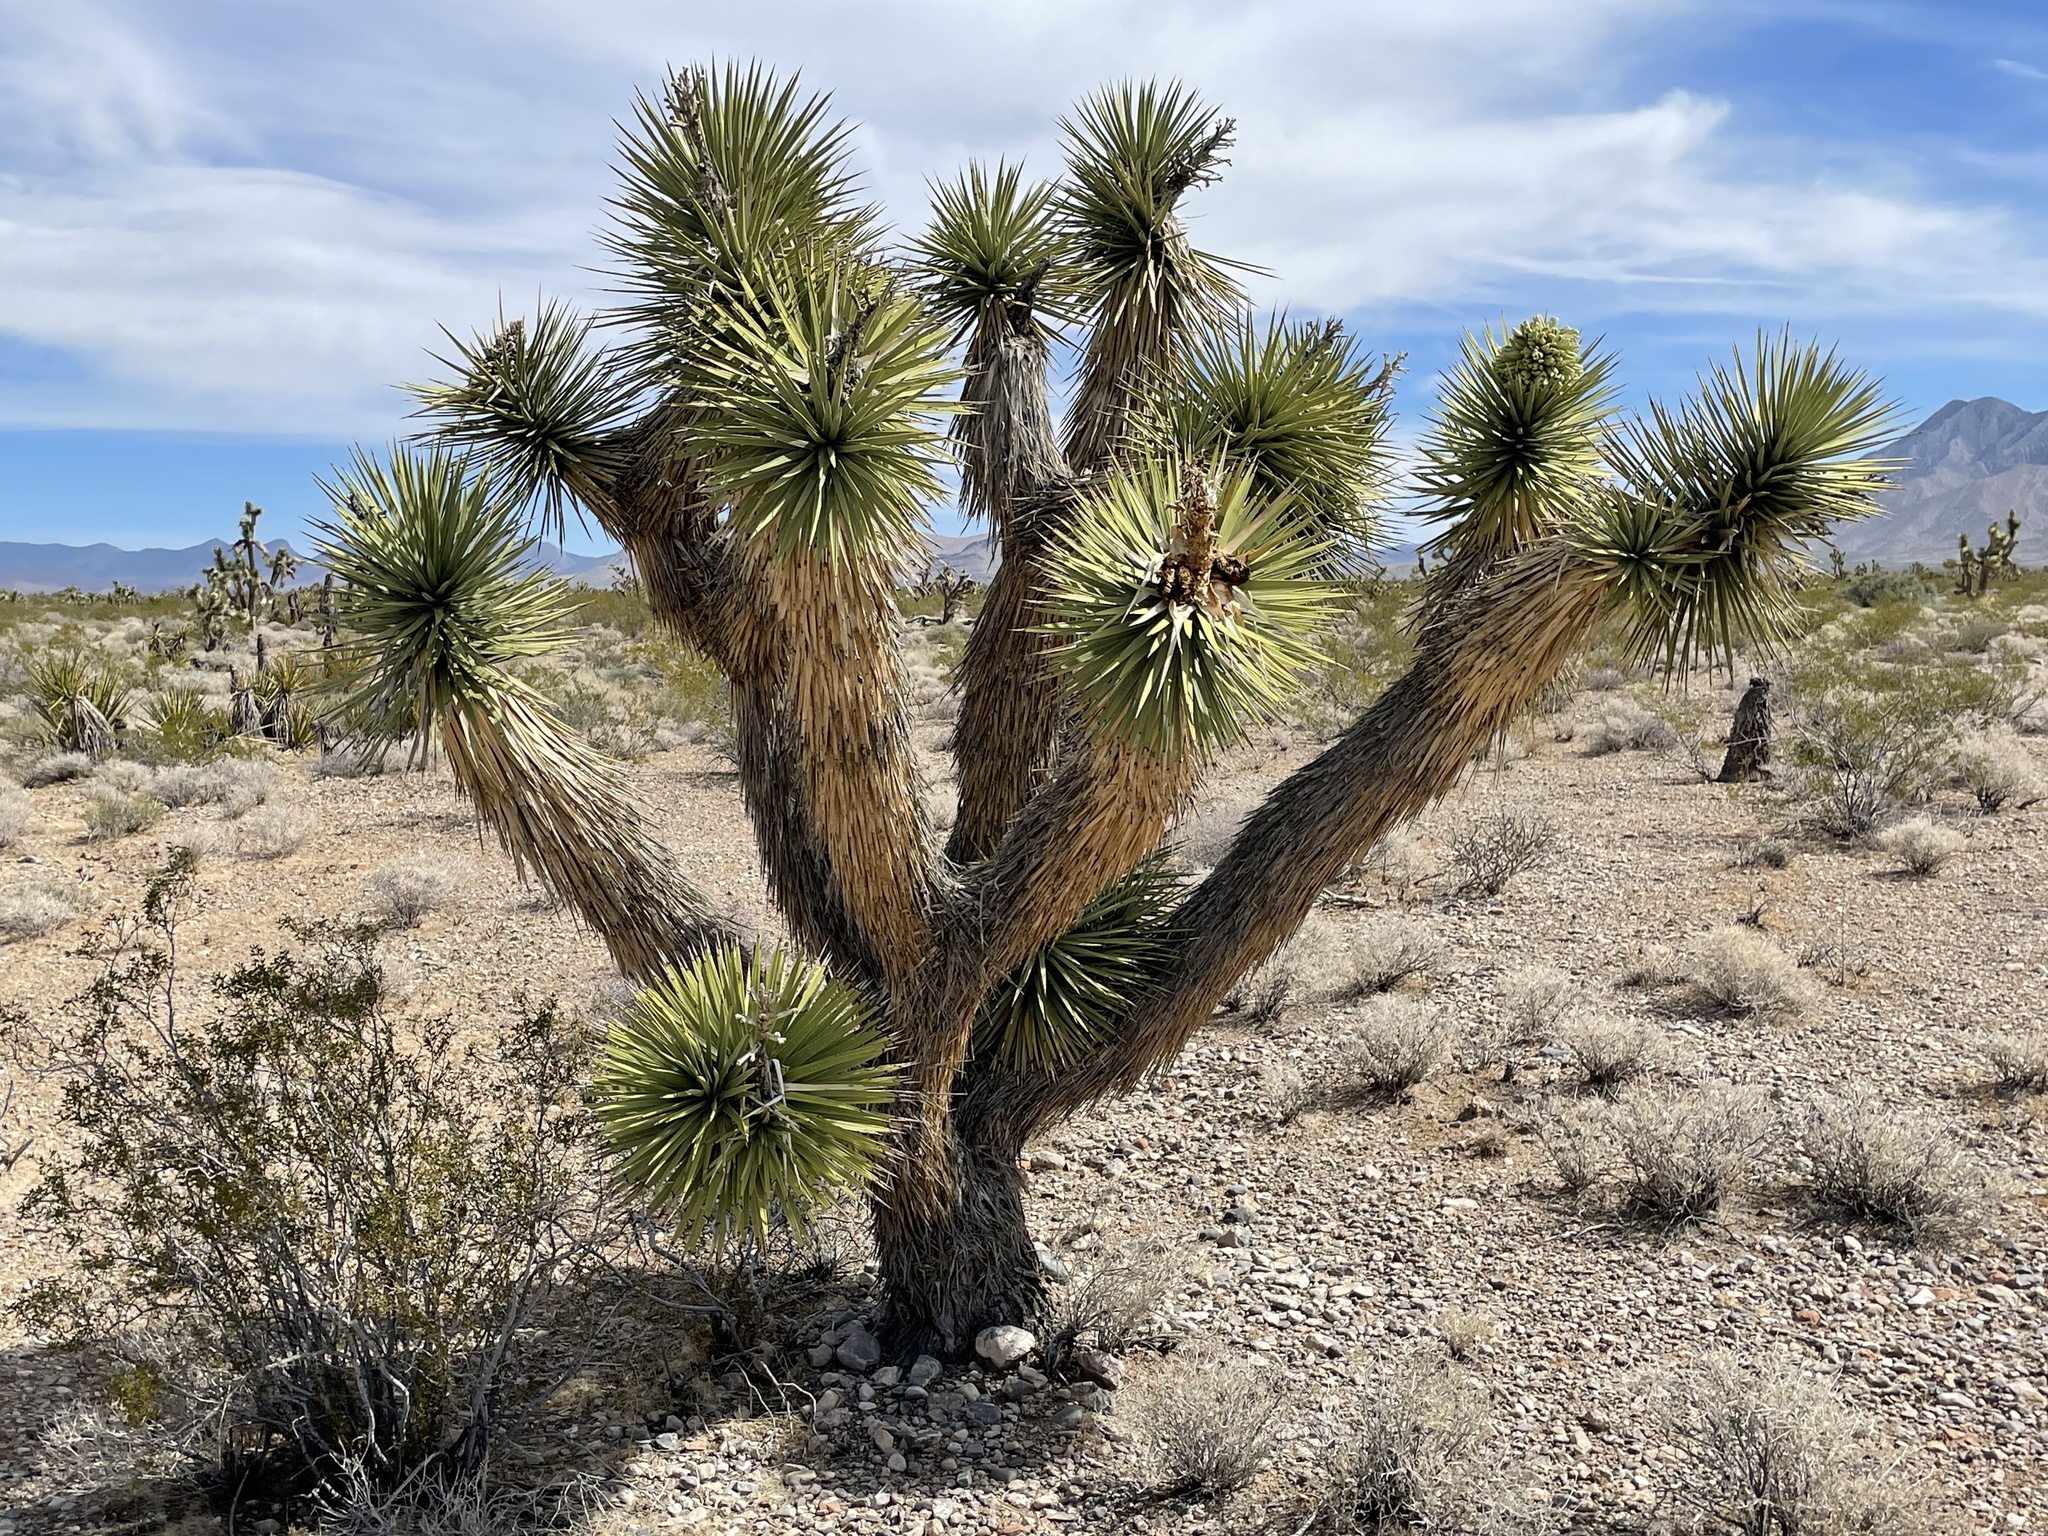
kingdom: Plantae
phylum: Tracheophyta
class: Liliopsida
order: Asparagales
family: Asparagaceae
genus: Yucca
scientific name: Yucca brevifolia
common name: Joshua tree
